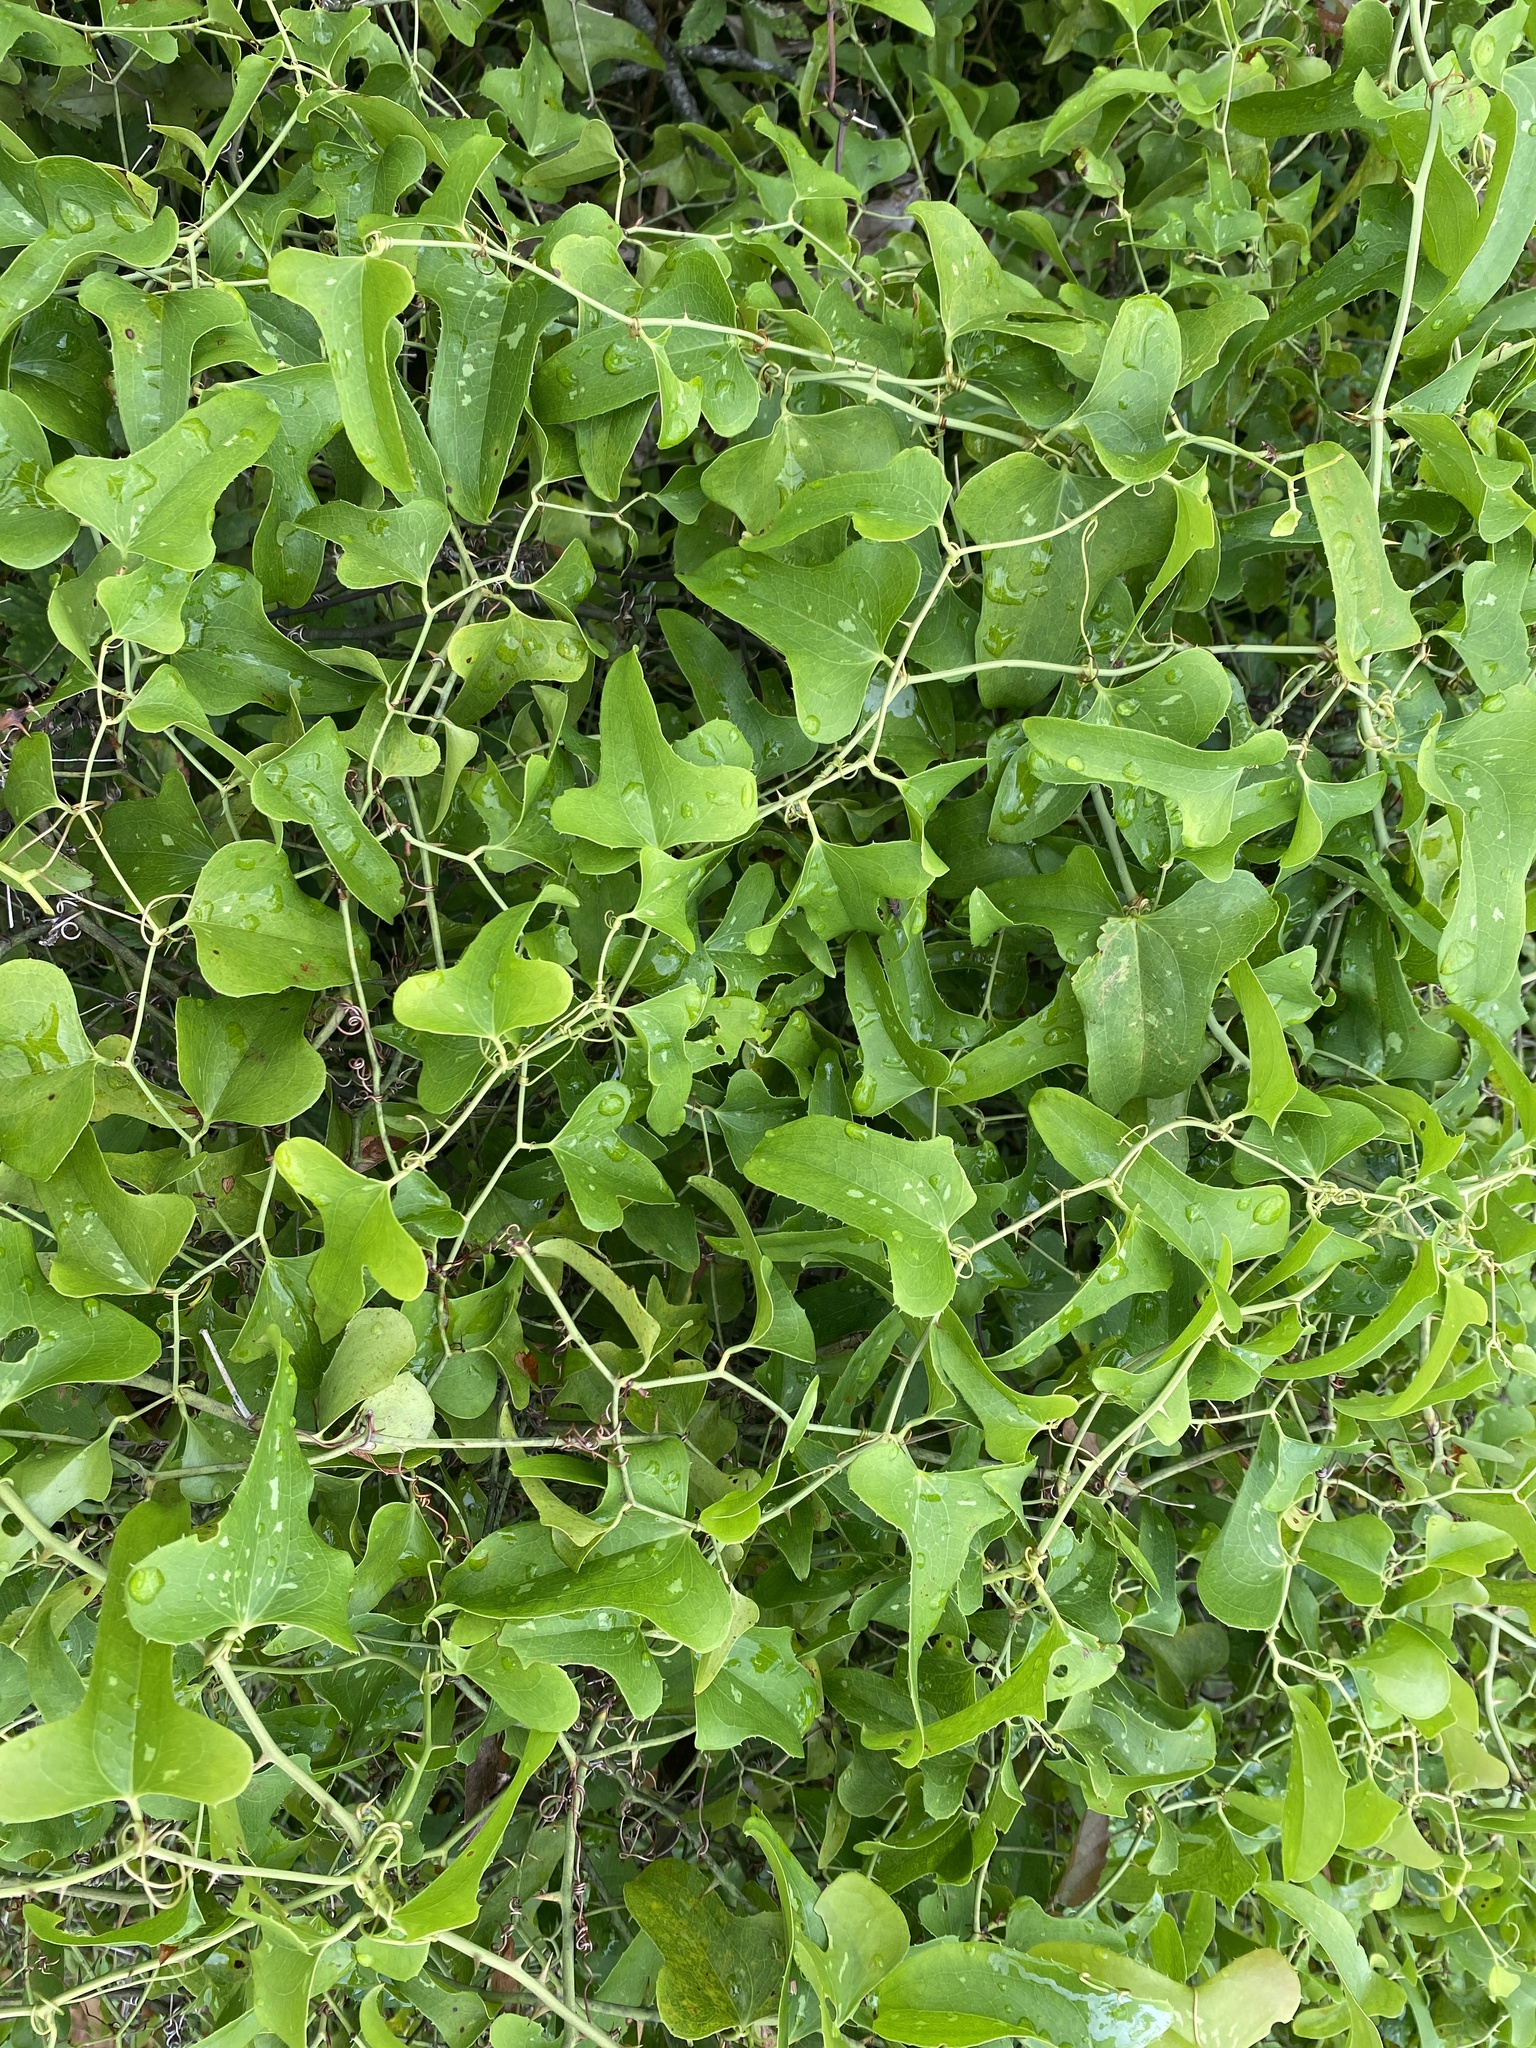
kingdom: Plantae
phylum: Tracheophyta
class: Liliopsida
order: Liliales
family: Smilacaceae
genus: Smilax
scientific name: Smilax bona-nox
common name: Catbrier
